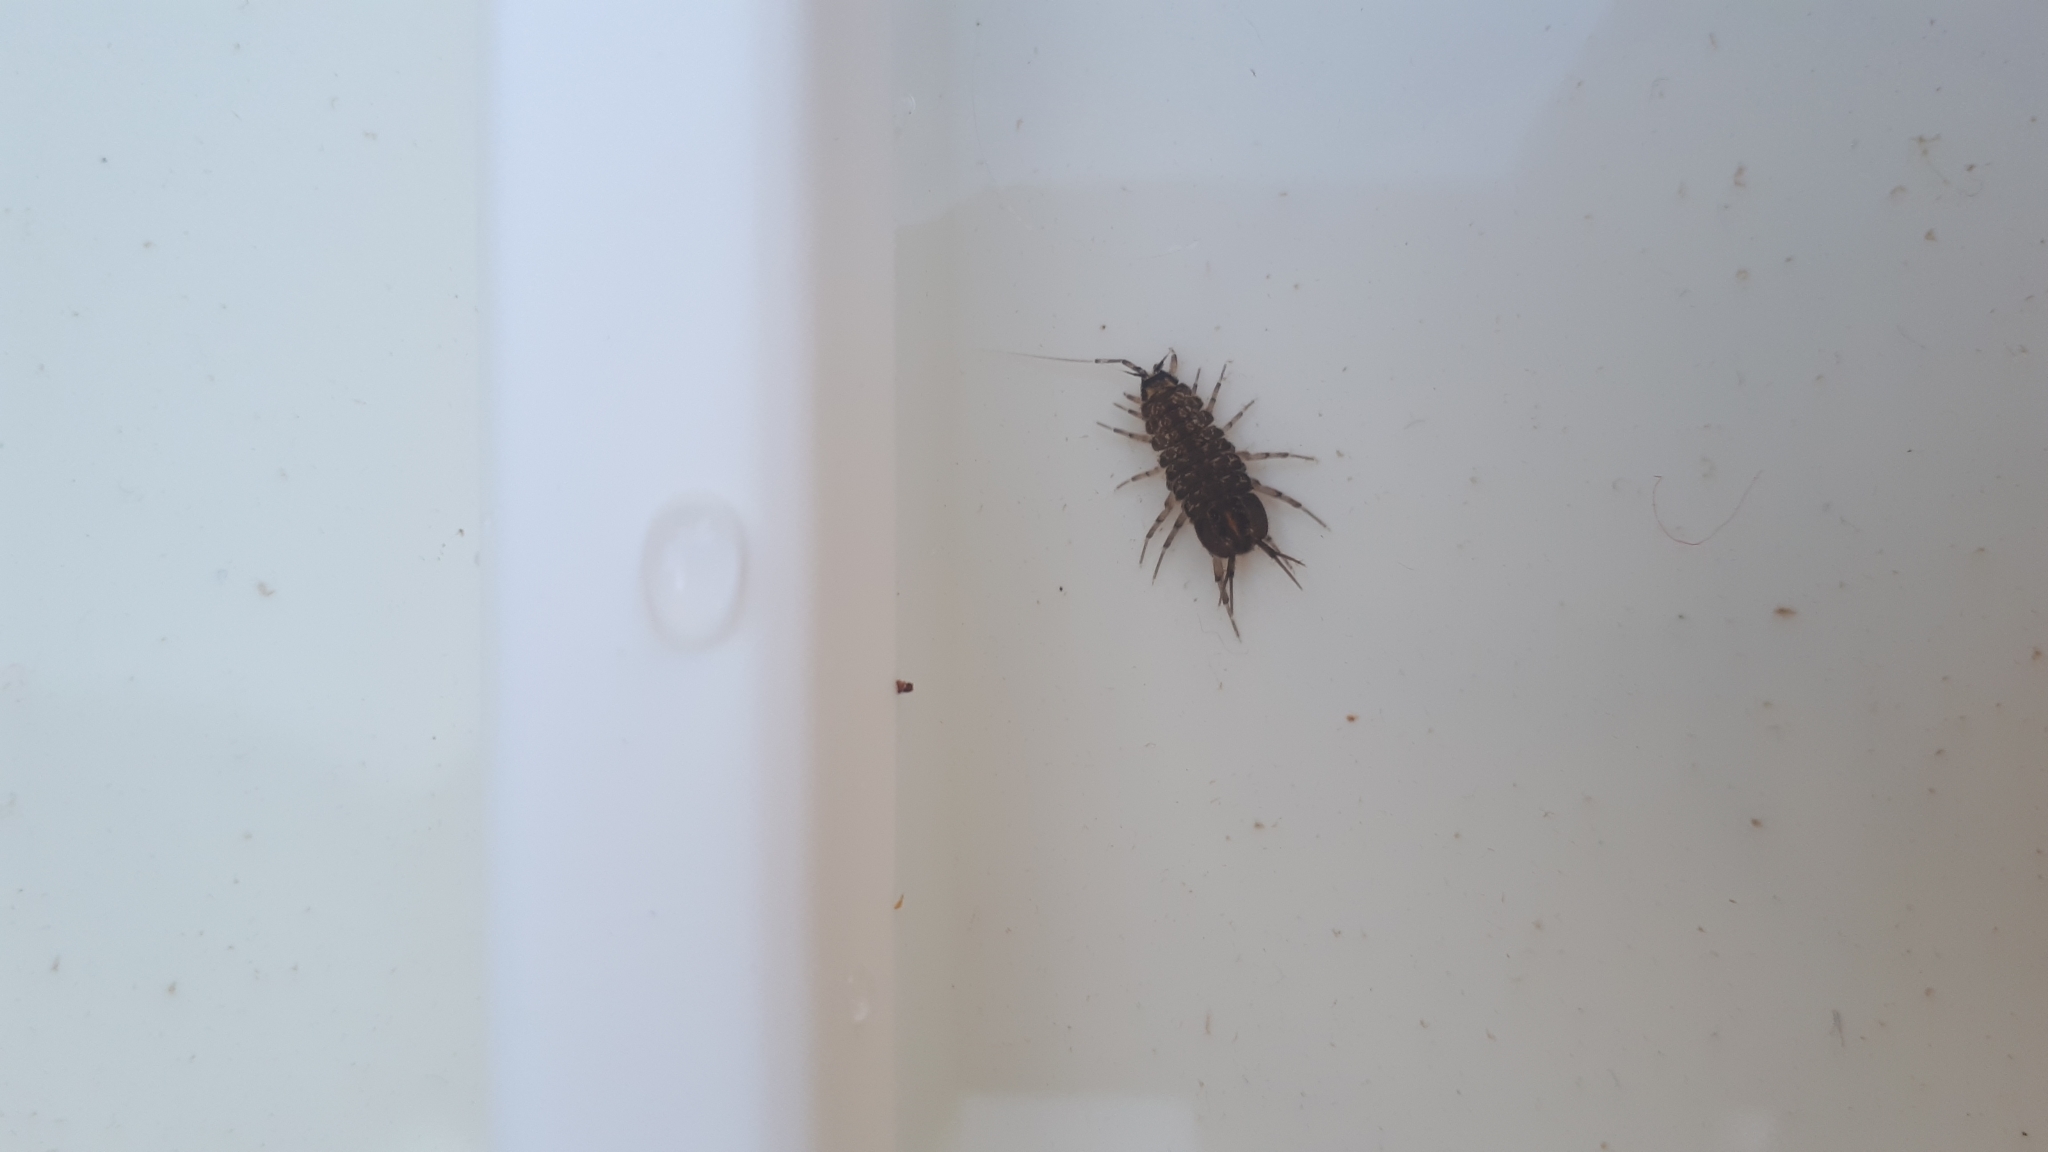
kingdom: Animalia
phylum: Arthropoda
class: Malacostraca
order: Isopoda
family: Asellidae
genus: Asellus
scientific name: Asellus aquaticus
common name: Water hog lice/slaters
